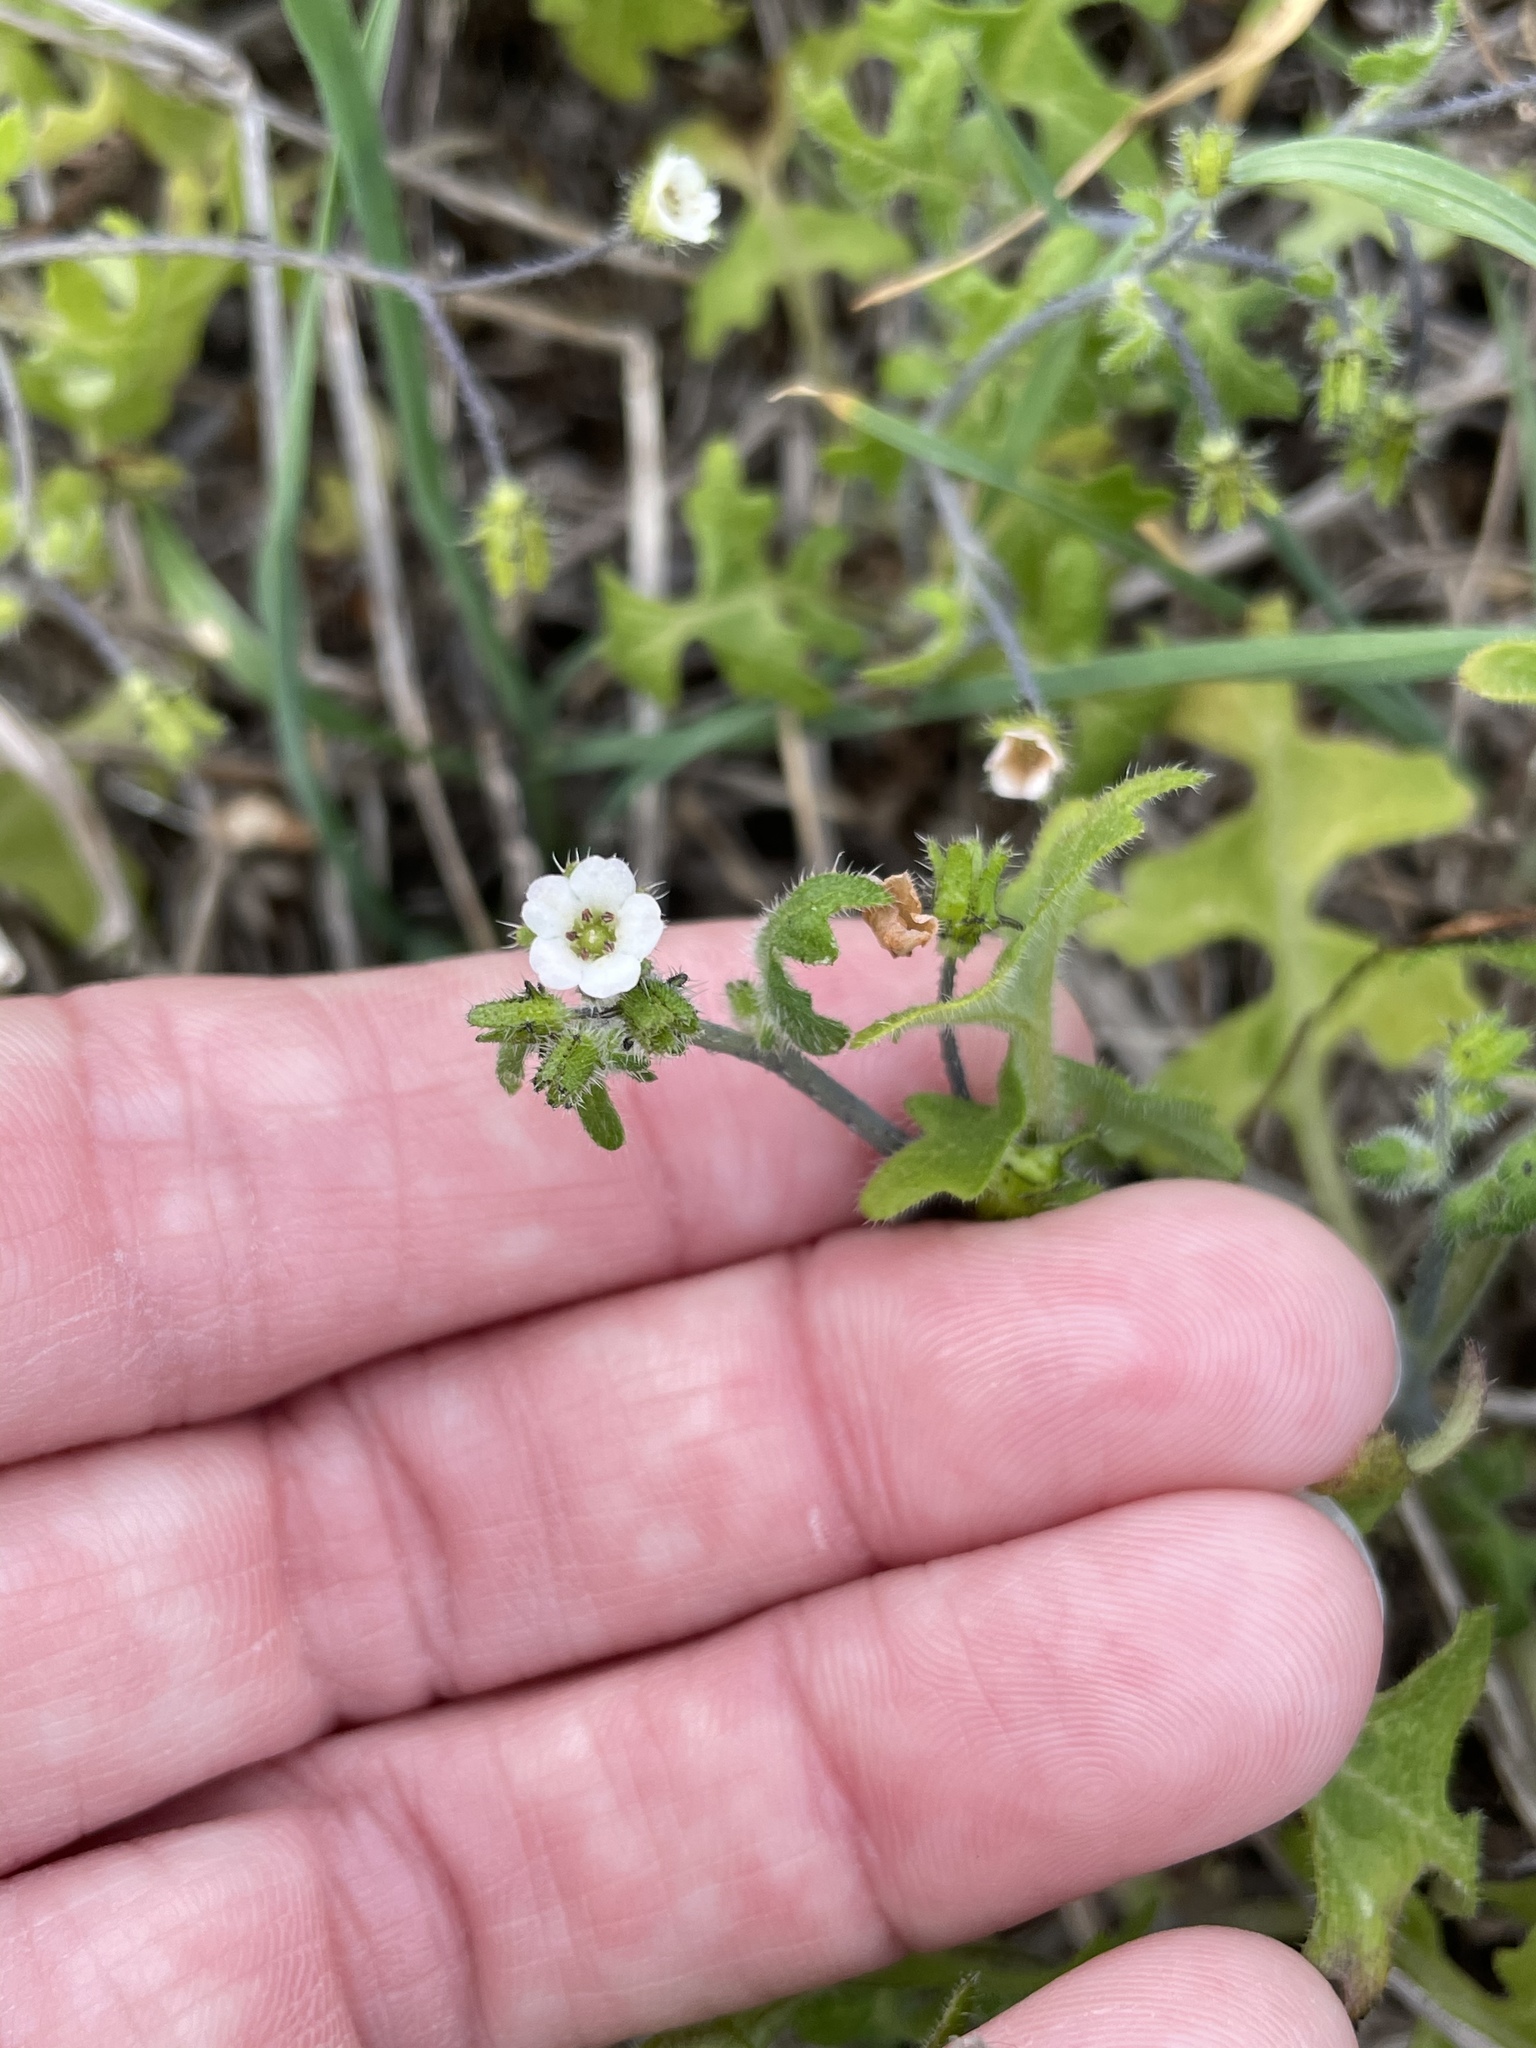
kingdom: Plantae
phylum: Tracheophyta
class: Magnoliopsida
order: Boraginales
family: Hydrophyllaceae
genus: Pholistoma
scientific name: Pholistoma racemosum
